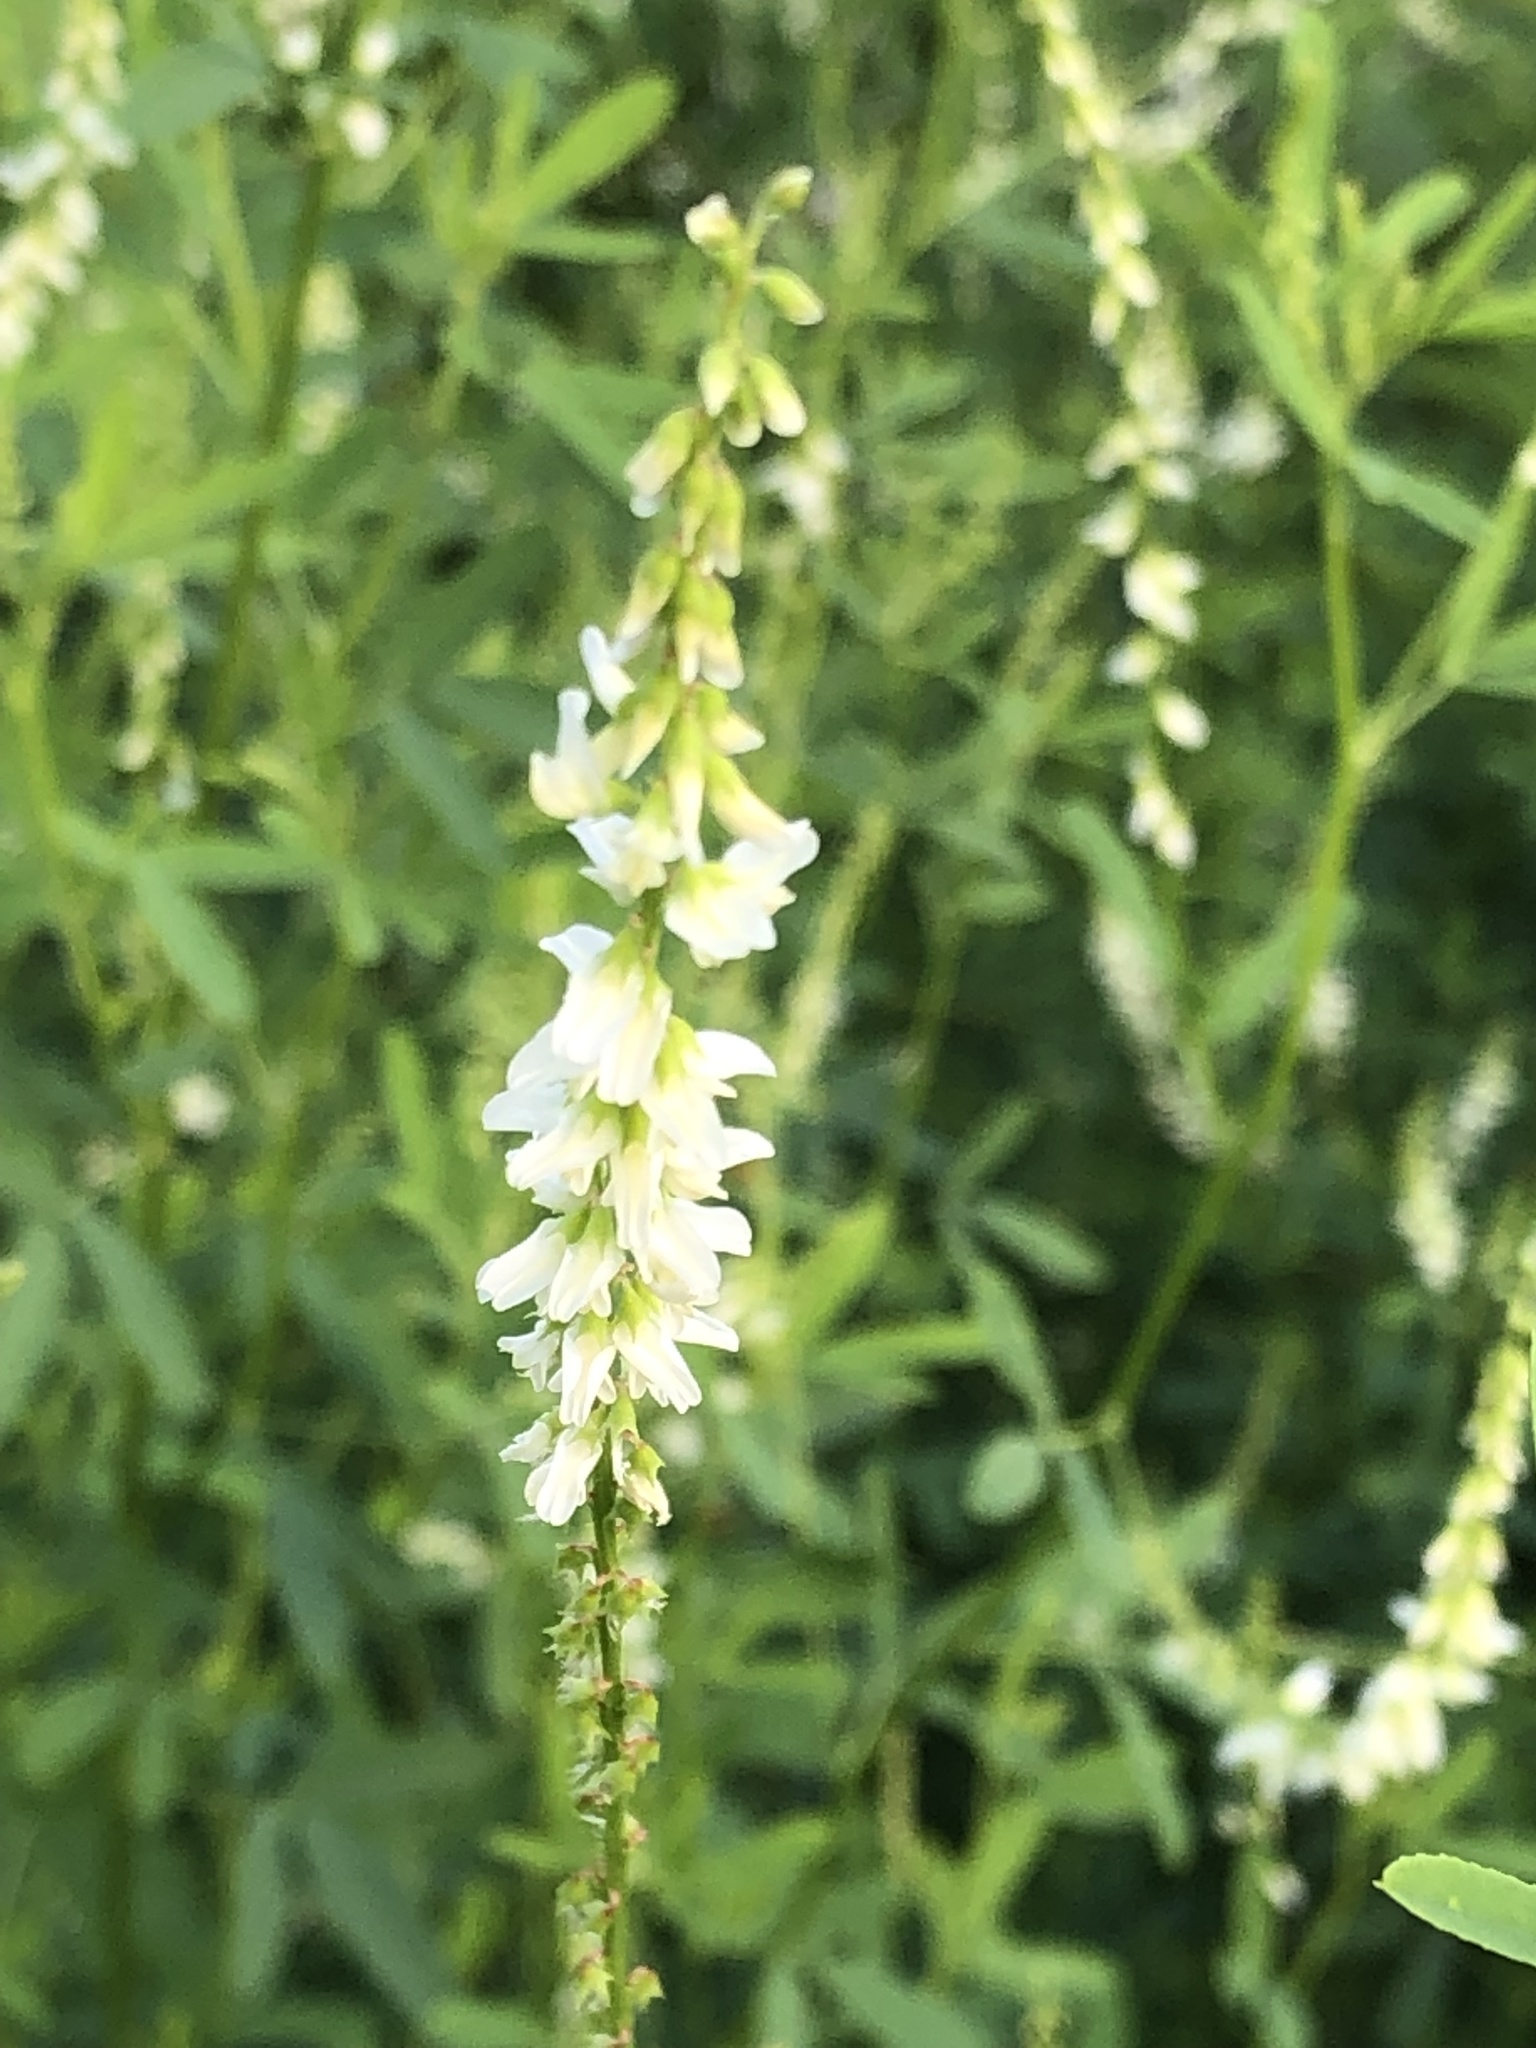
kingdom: Plantae
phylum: Tracheophyta
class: Magnoliopsida
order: Fabales
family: Fabaceae
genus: Melilotus
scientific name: Melilotus albus
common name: White melilot
